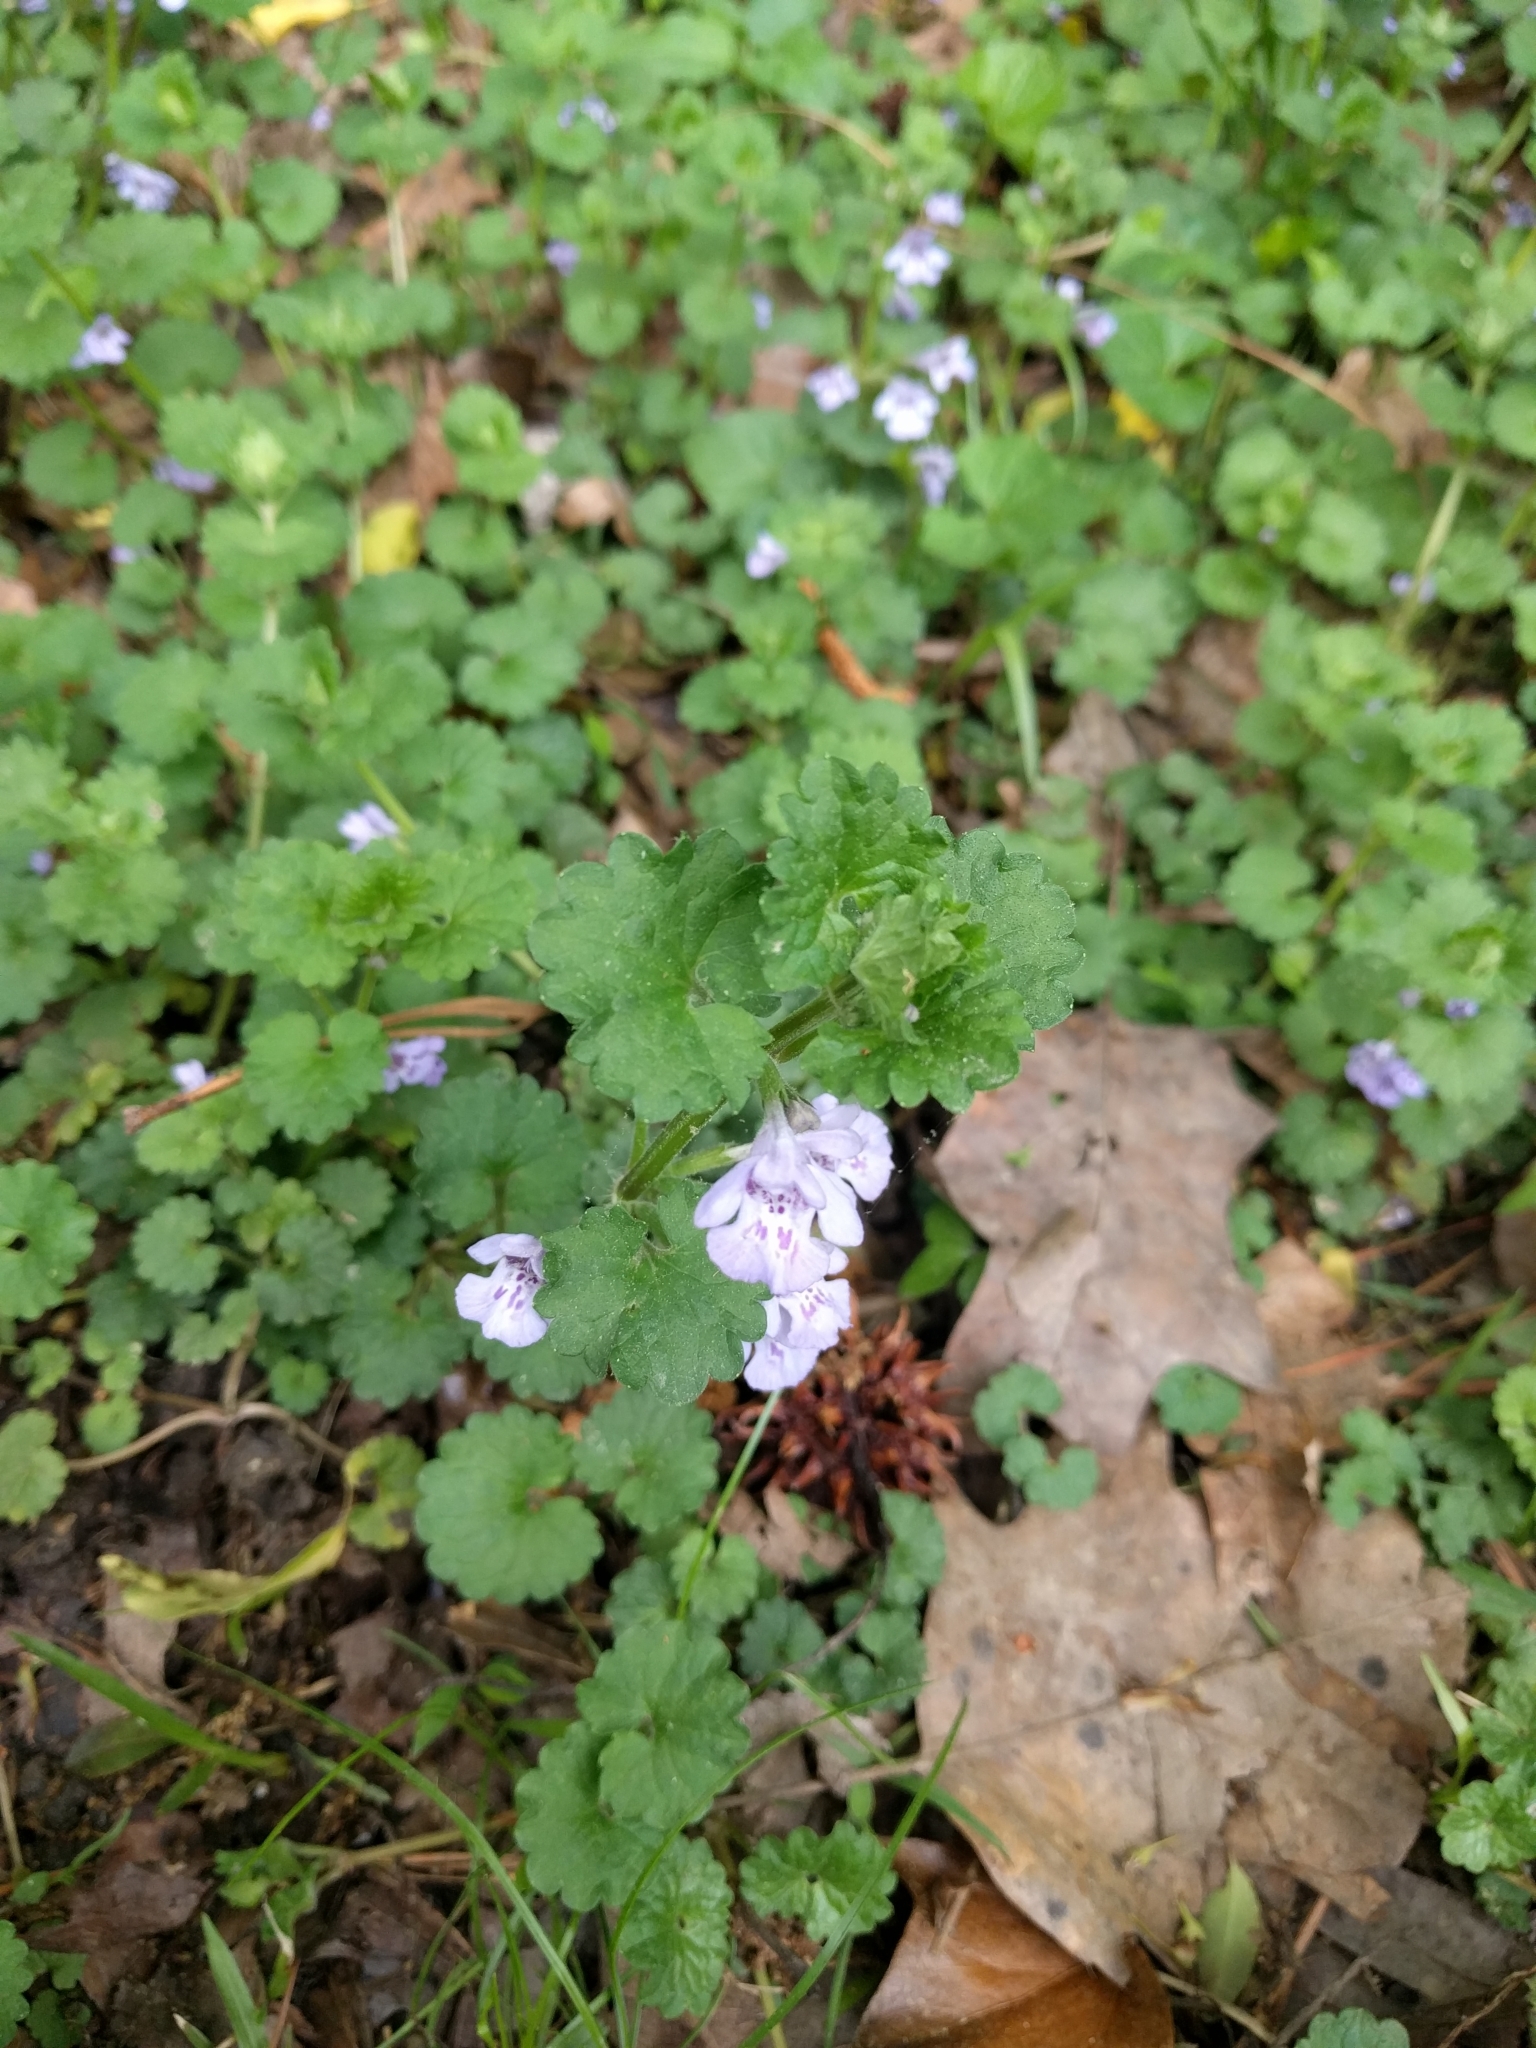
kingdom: Plantae
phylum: Tracheophyta
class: Magnoliopsida
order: Lamiales
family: Lamiaceae
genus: Glechoma
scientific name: Glechoma hederacea
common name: Ground ivy
